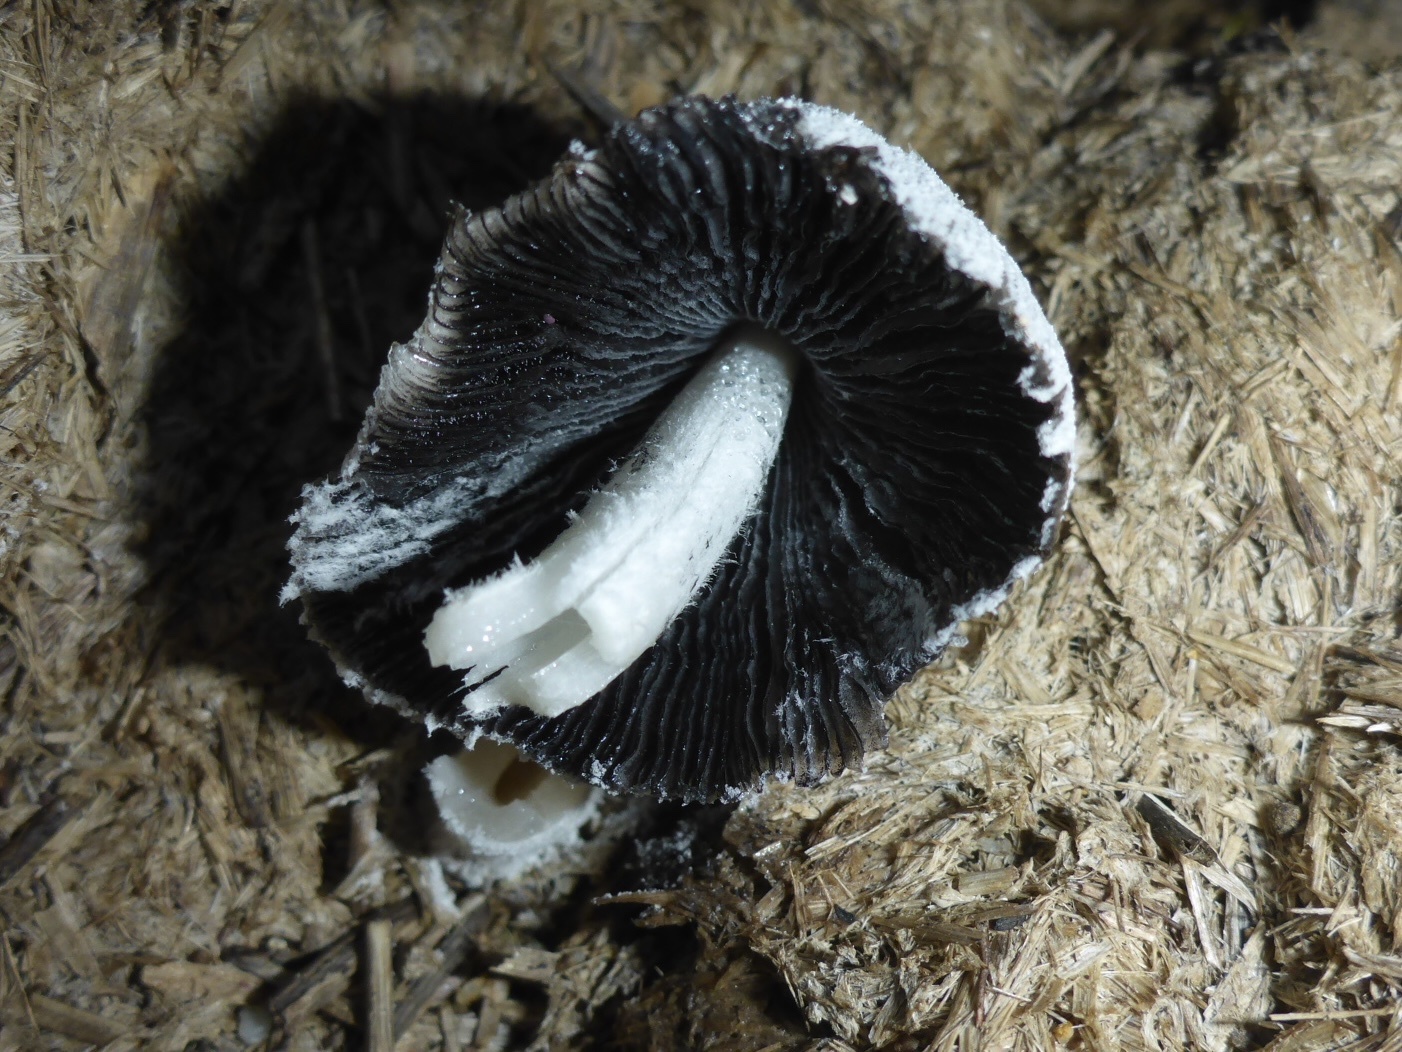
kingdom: Fungi
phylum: Basidiomycota
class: Agaricomycetes
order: Agaricales
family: Psathyrellaceae
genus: Coprinopsis
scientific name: Coprinopsis nivea
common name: Snowy inkcap
